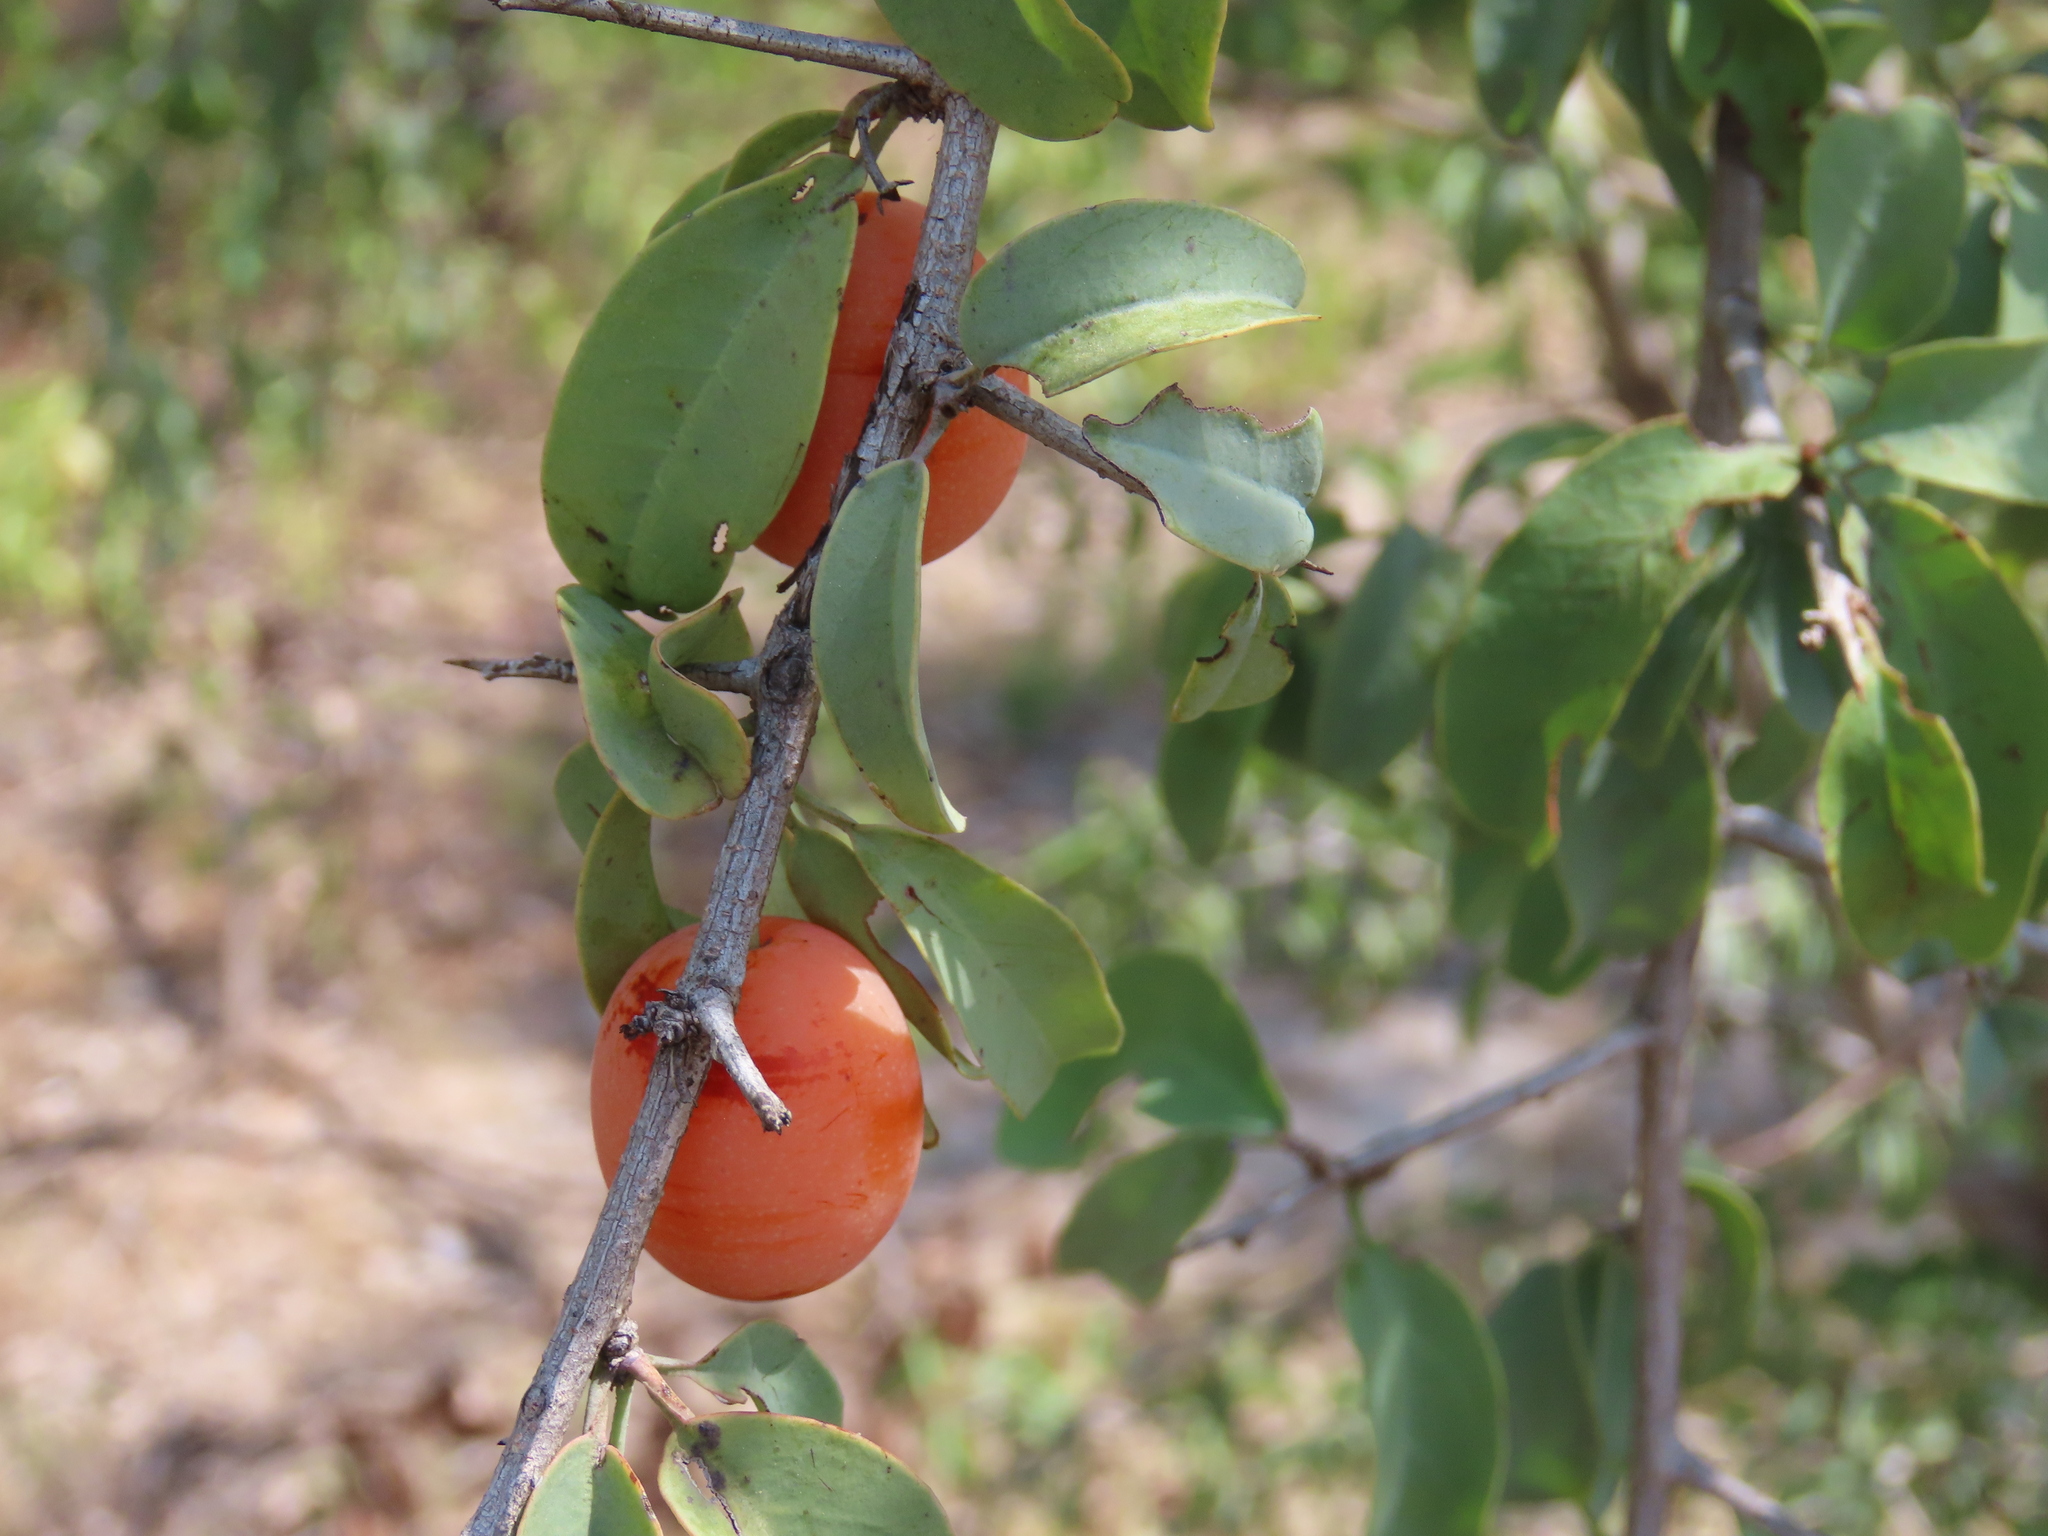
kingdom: Plantae
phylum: Tracheophyta
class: Magnoliopsida
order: Santalales
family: Ximeniaceae
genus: Ximenia
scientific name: Ximenia americana
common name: Tallowwood
